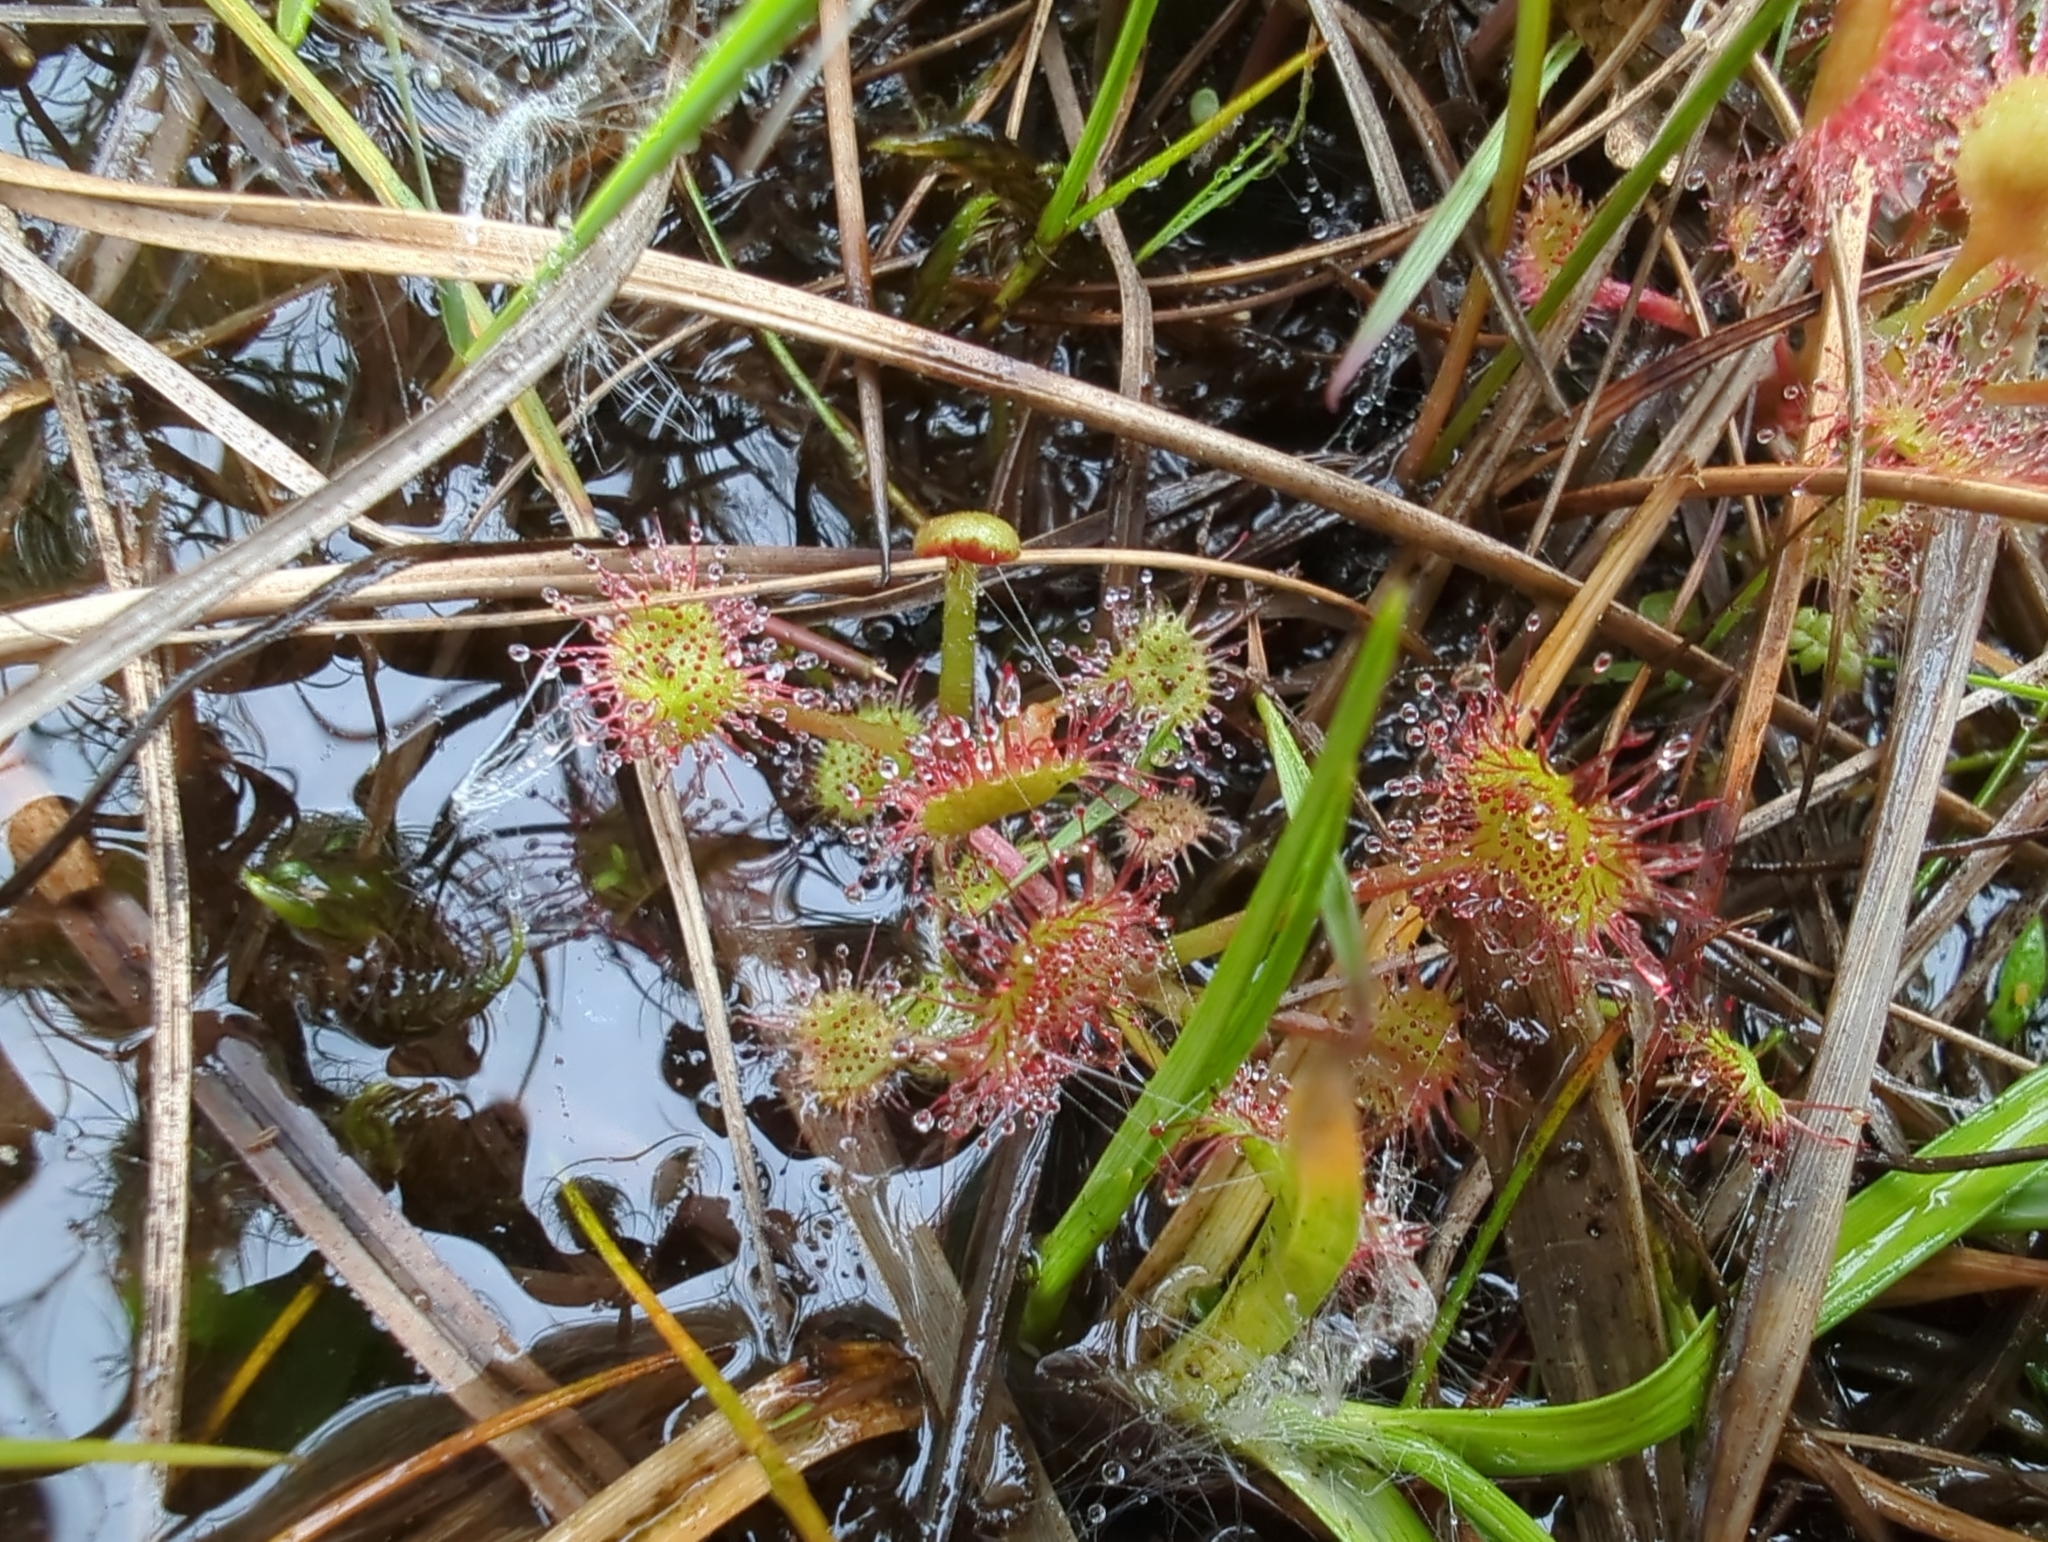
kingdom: Plantae
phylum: Tracheophyta
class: Magnoliopsida
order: Caryophyllales
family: Droseraceae
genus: Drosera
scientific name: Drosera rotundifolia
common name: Round-leaved sundew
